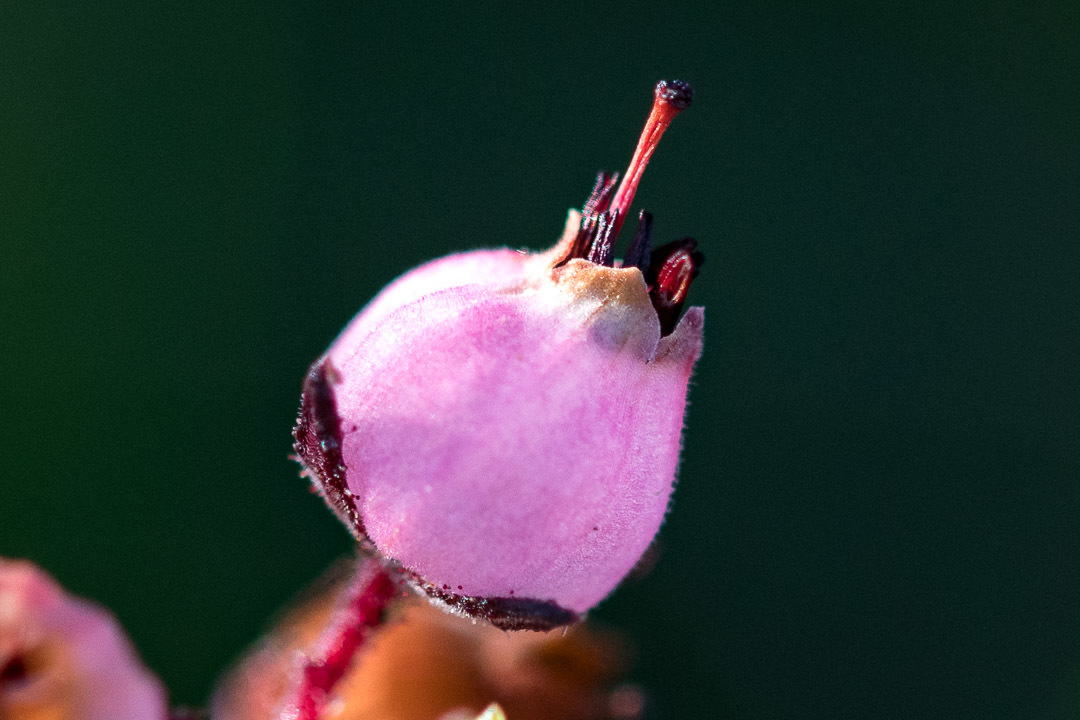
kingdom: Plantae
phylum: Tracheophyta
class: Magnoliopsida
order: Ericales
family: Ericaceae
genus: Erica
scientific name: Erica hirta
